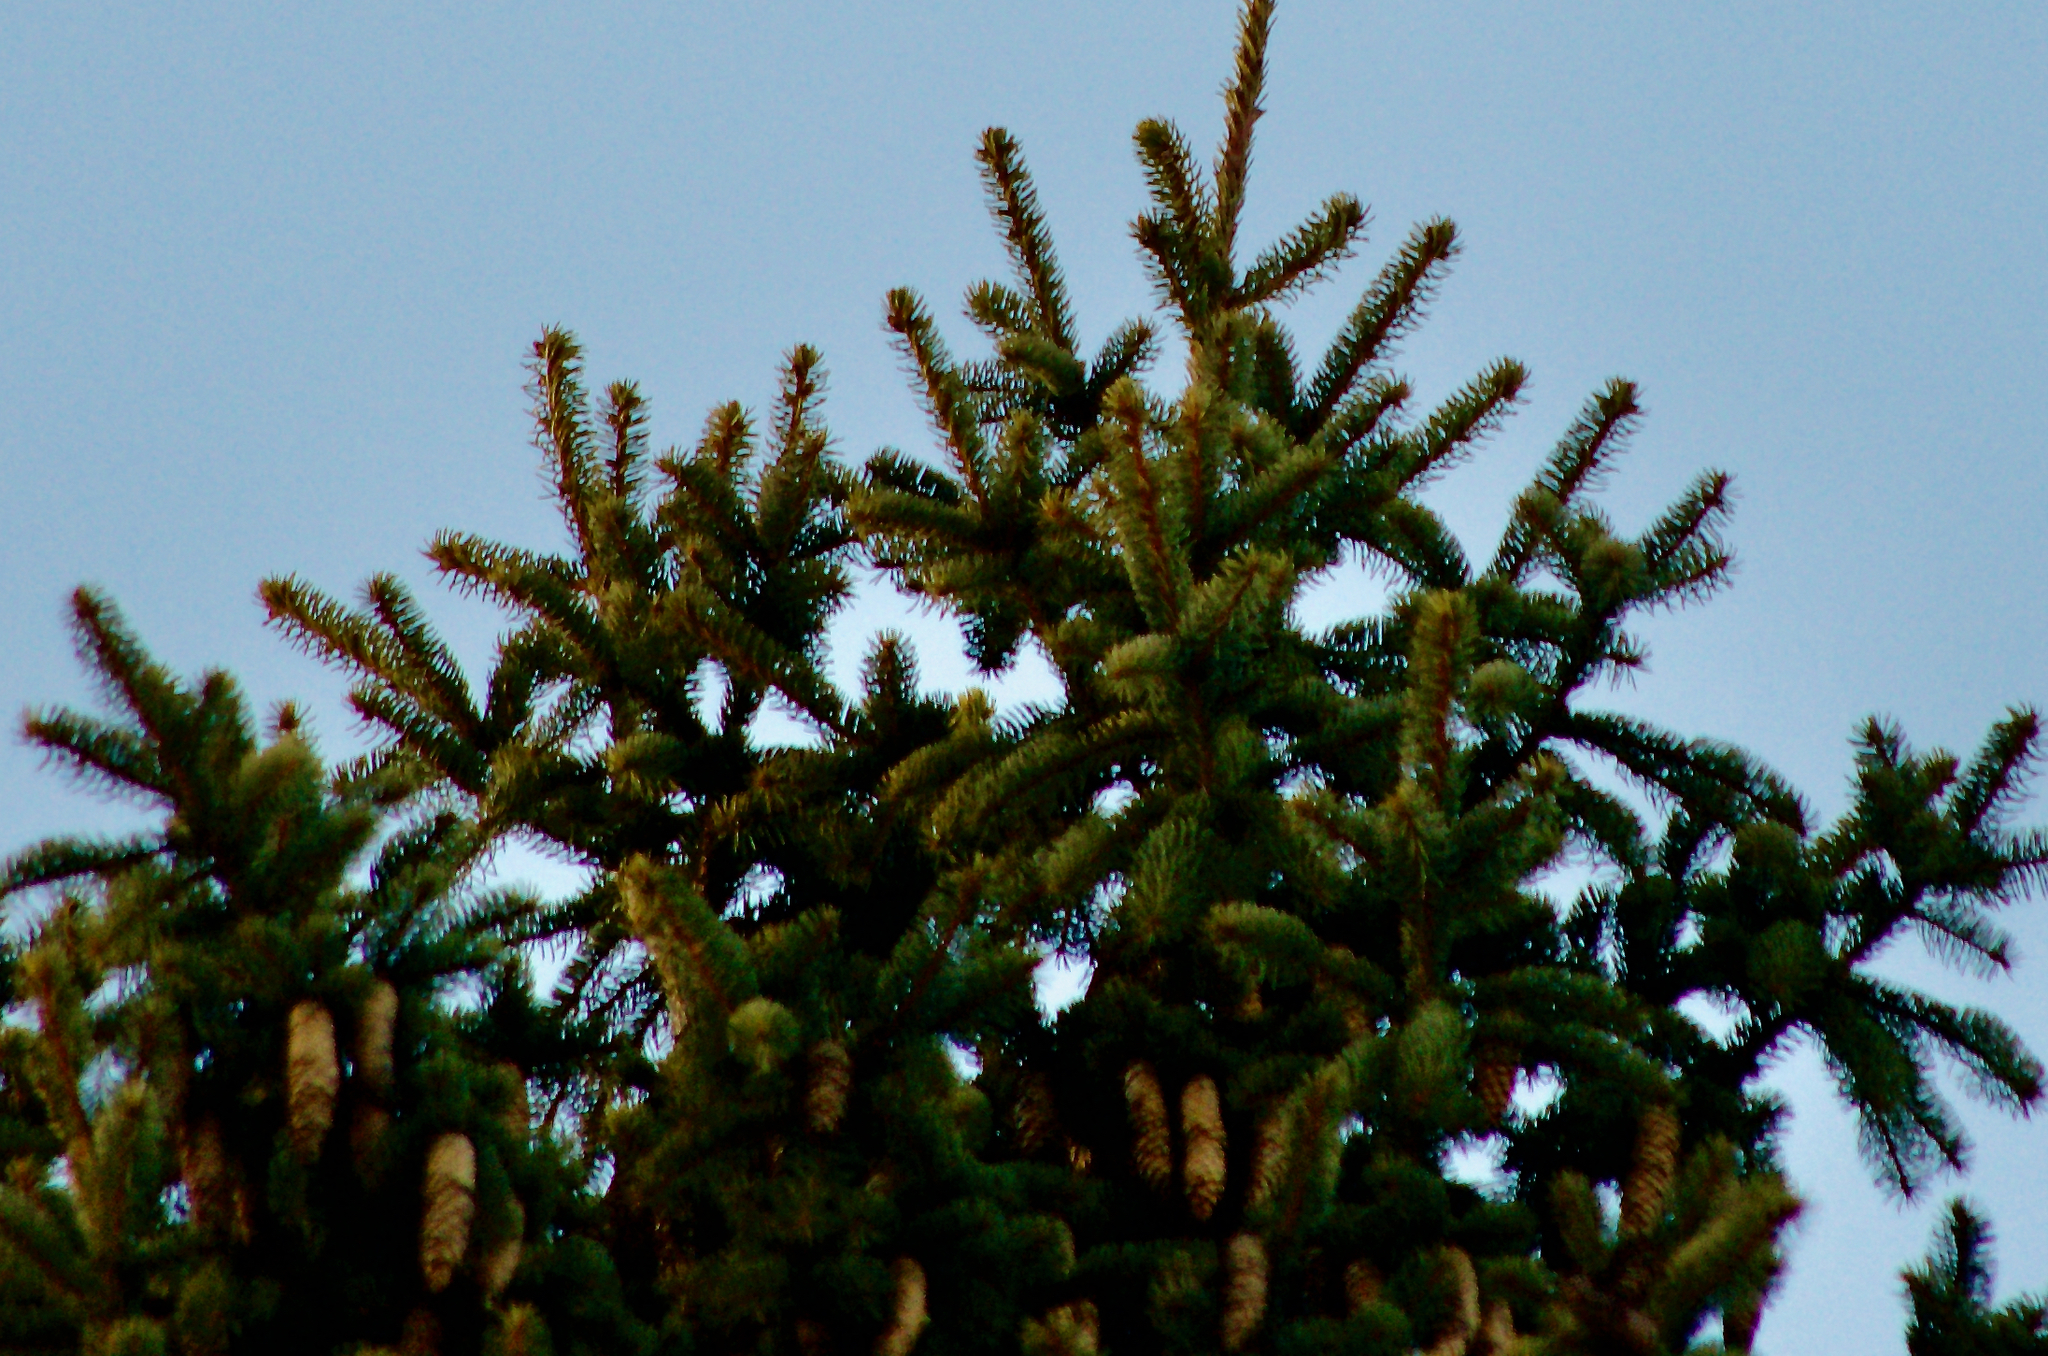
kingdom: Plantae
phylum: Tracheophyta
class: Pinopsida
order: Pinales
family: Pinaceae
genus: Picea
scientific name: Picea abies
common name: Norway spruce
